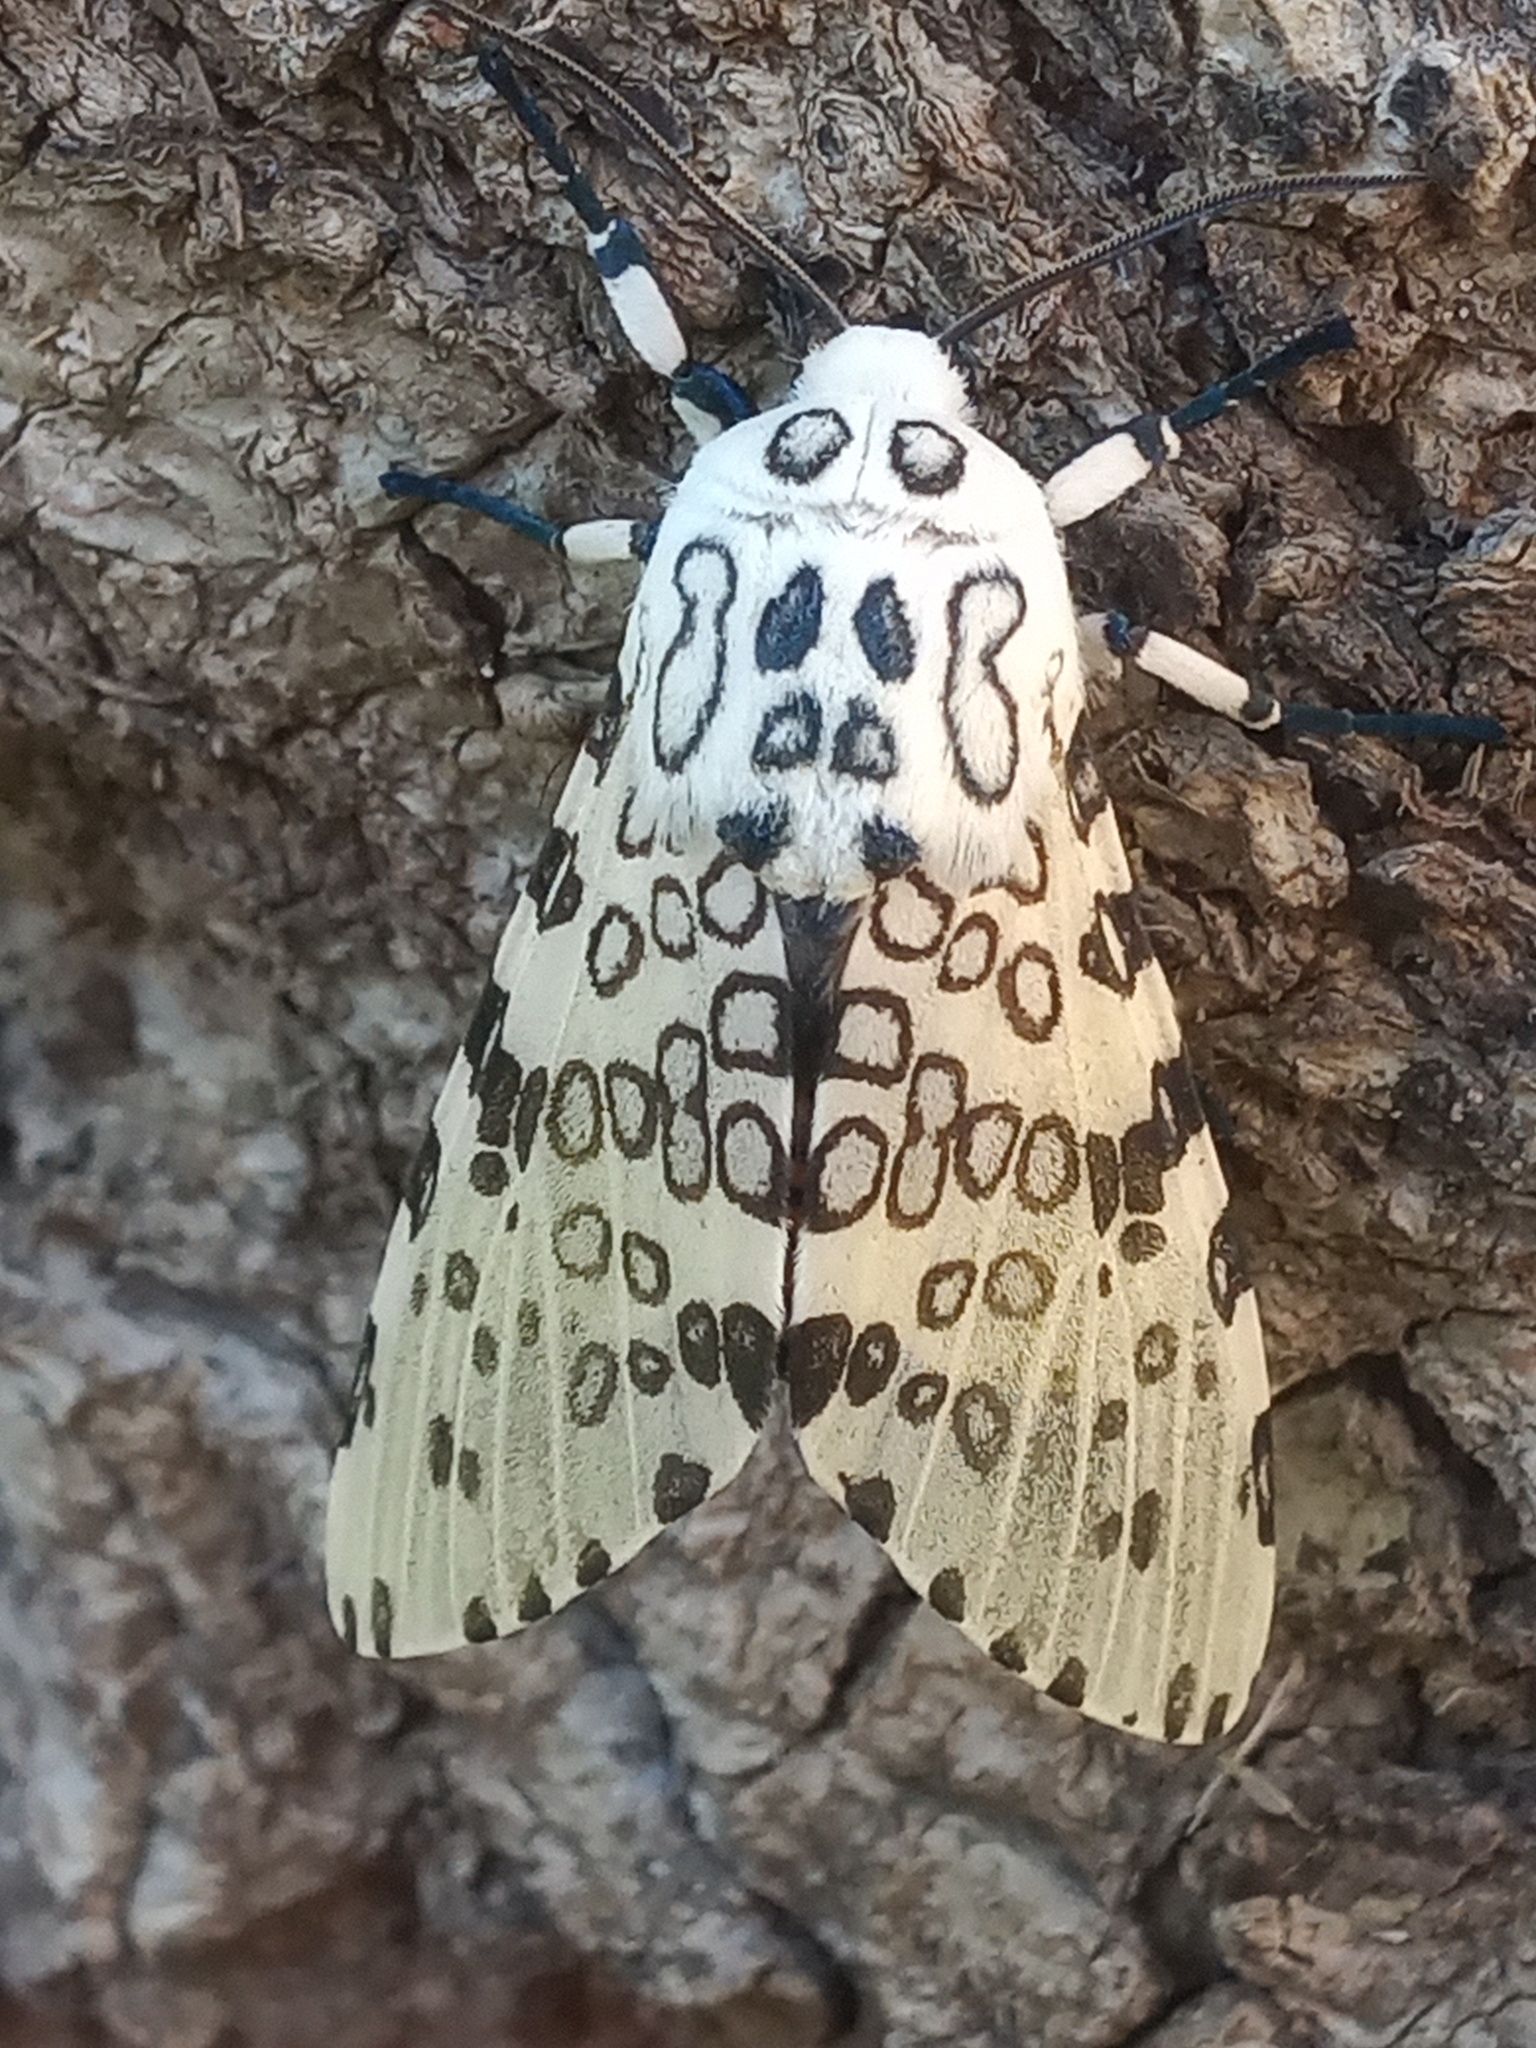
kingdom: Animalia
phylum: Arthropoda
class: Insecta
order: Lepidoptera
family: Erebidae
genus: Hypercompe
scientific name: Hypercompe scribonia
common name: Giant leopard moth
